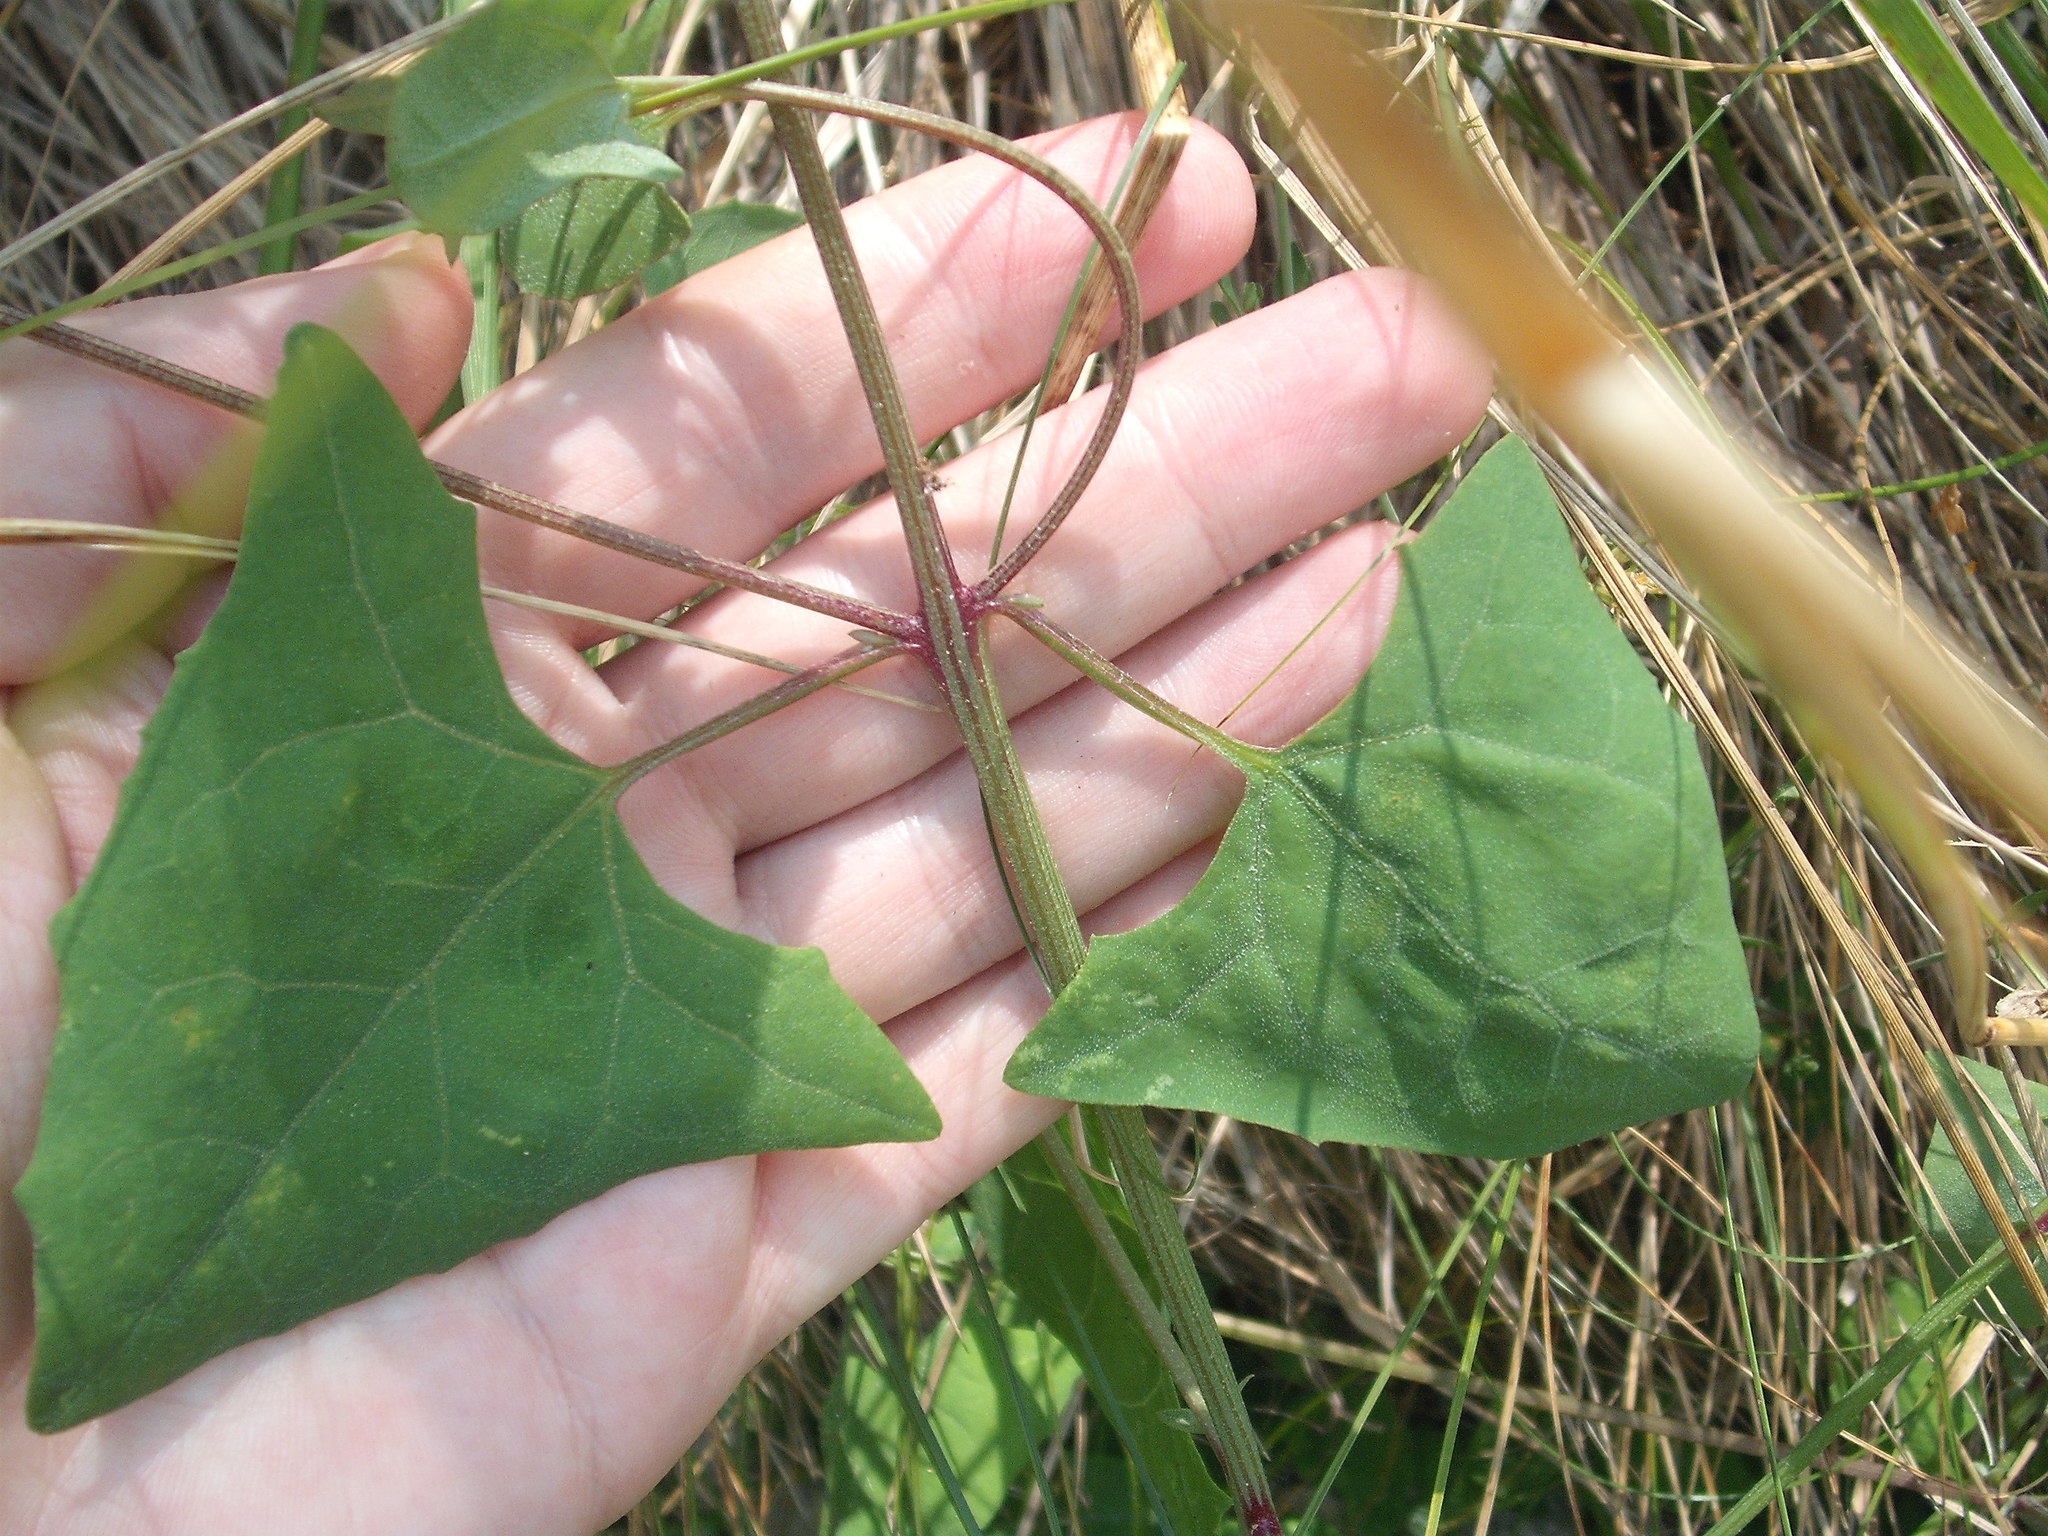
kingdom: Plantae
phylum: Tracheophyta
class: Magnoliopsida
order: Caryophyllales
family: Amaranthaceae
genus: Atriplex
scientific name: Atriplex prostrata
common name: Spear-leaved orache
